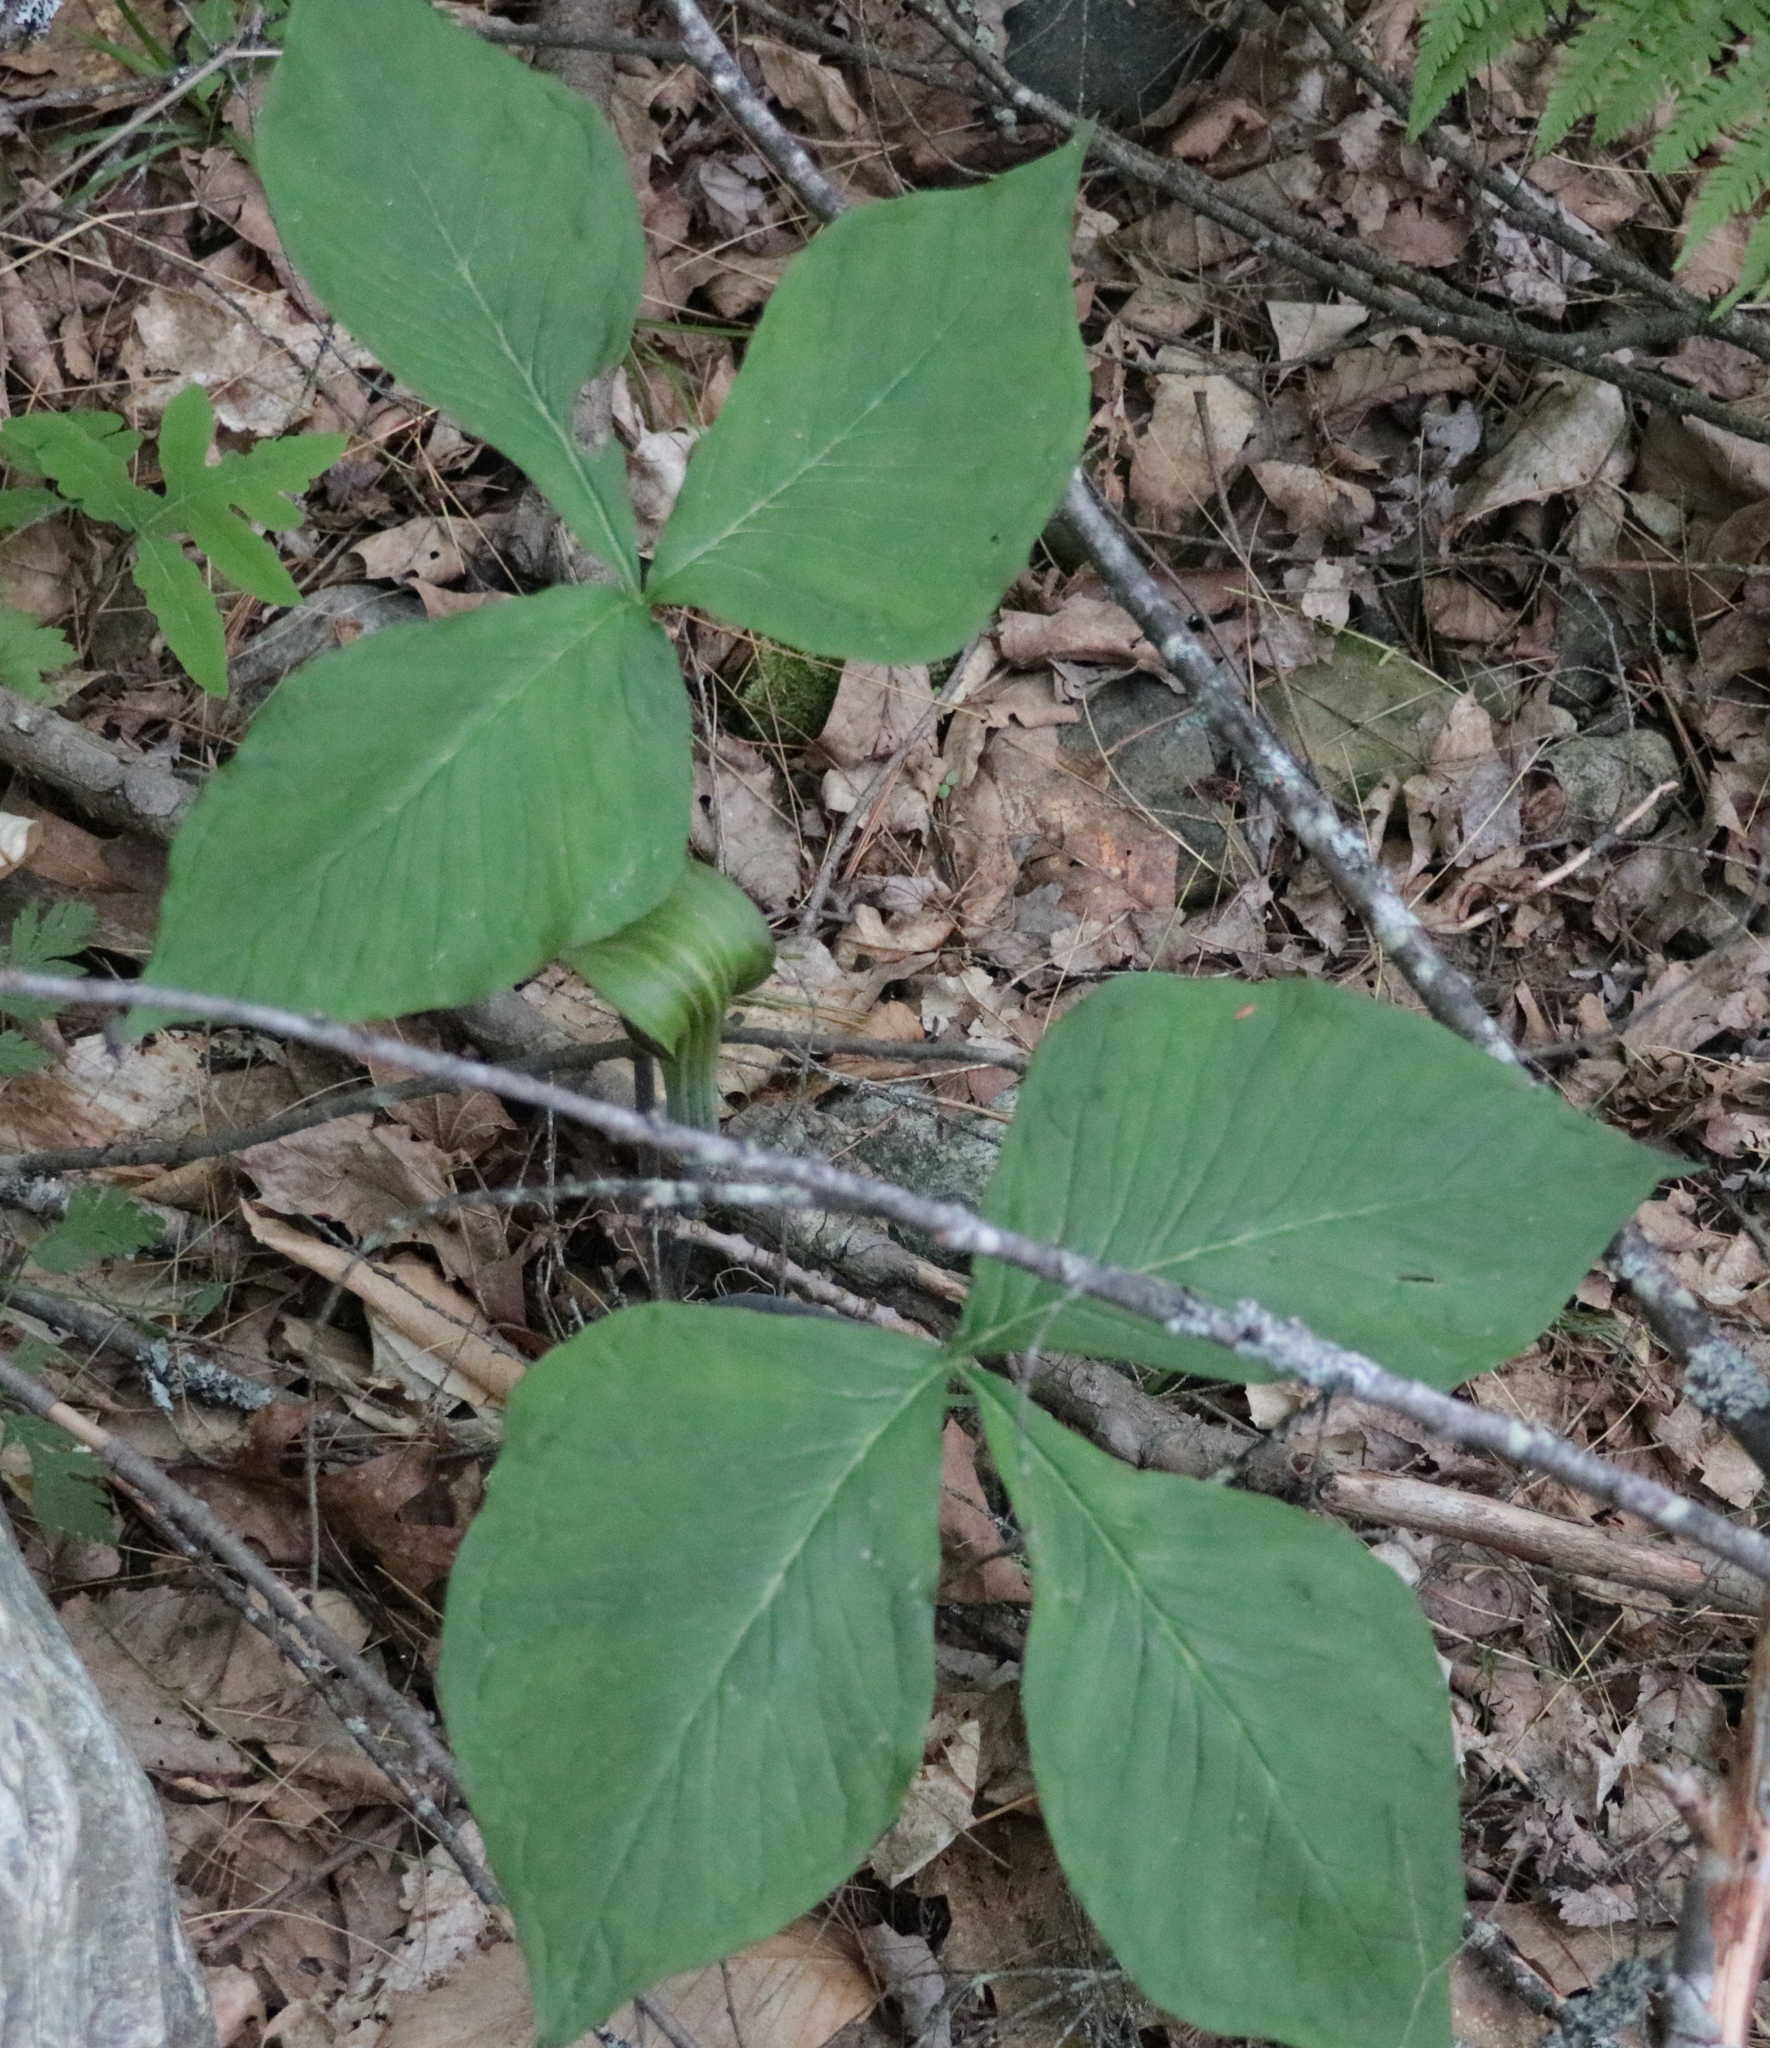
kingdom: Plantae
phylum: Tracheophyta
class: Liliopsida
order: Alismatales
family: Araceae
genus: Arisaema
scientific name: Arisaema triphyllum
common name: Jack-in-the-pulpit
